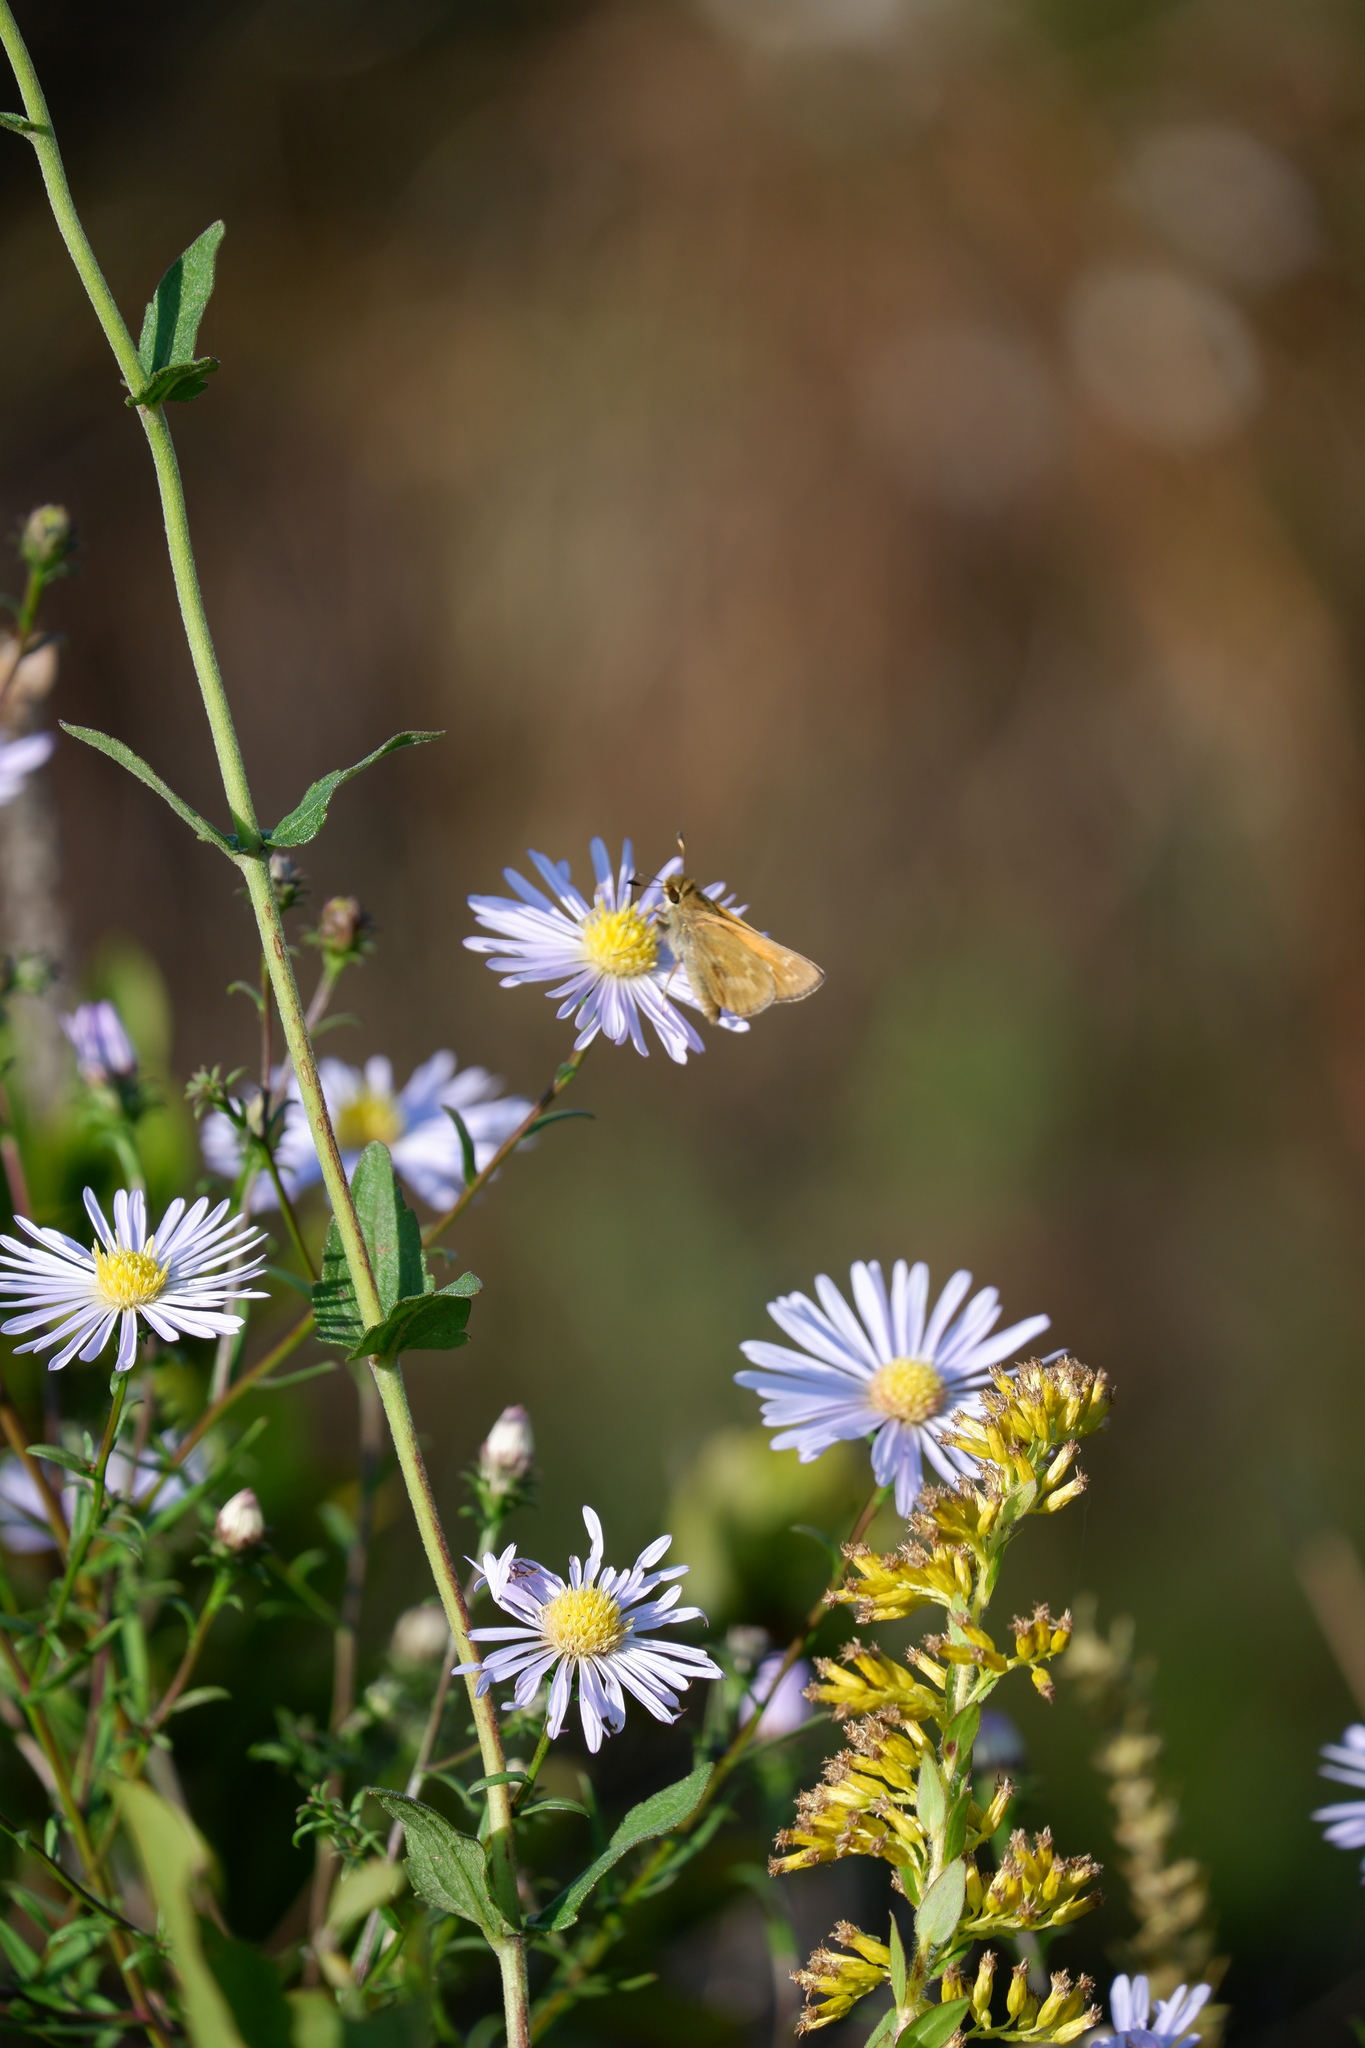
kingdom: Animalia
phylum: Arthropoda
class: Insecta
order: Lepidoptera
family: Hesperiidae
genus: Atalopedes
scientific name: Atalopedes
